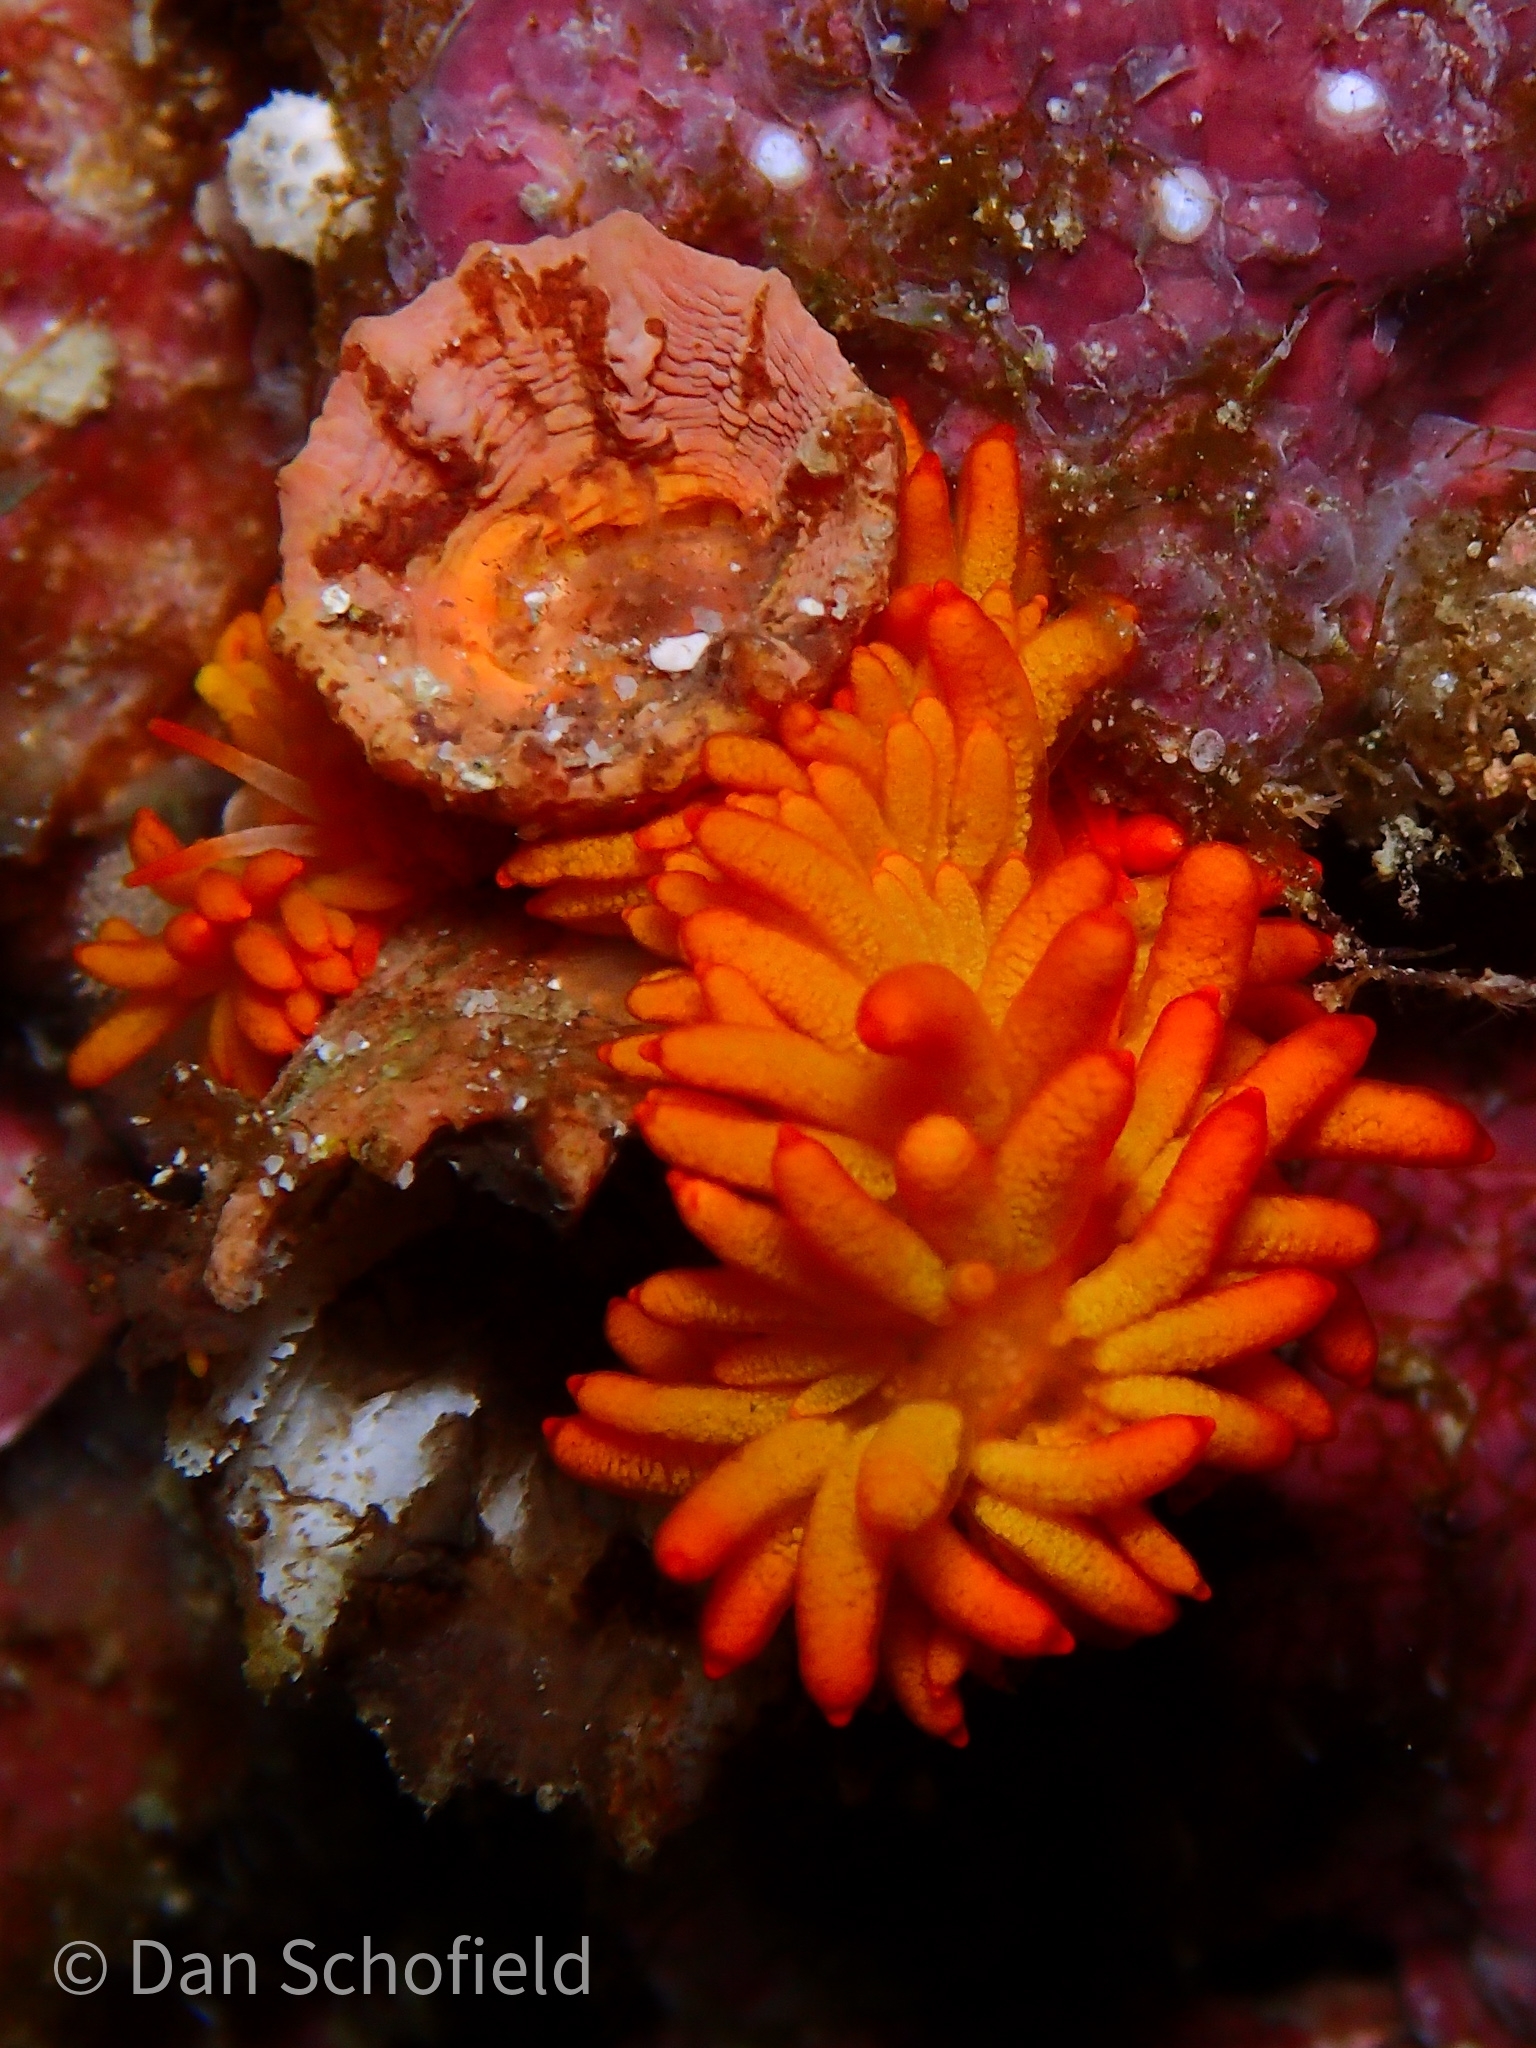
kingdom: Animalia
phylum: Mollusca
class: Gastropoda
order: Nudibranchia
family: Trinchesiidae
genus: Phestilla
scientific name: Phestilla melanobrachia
